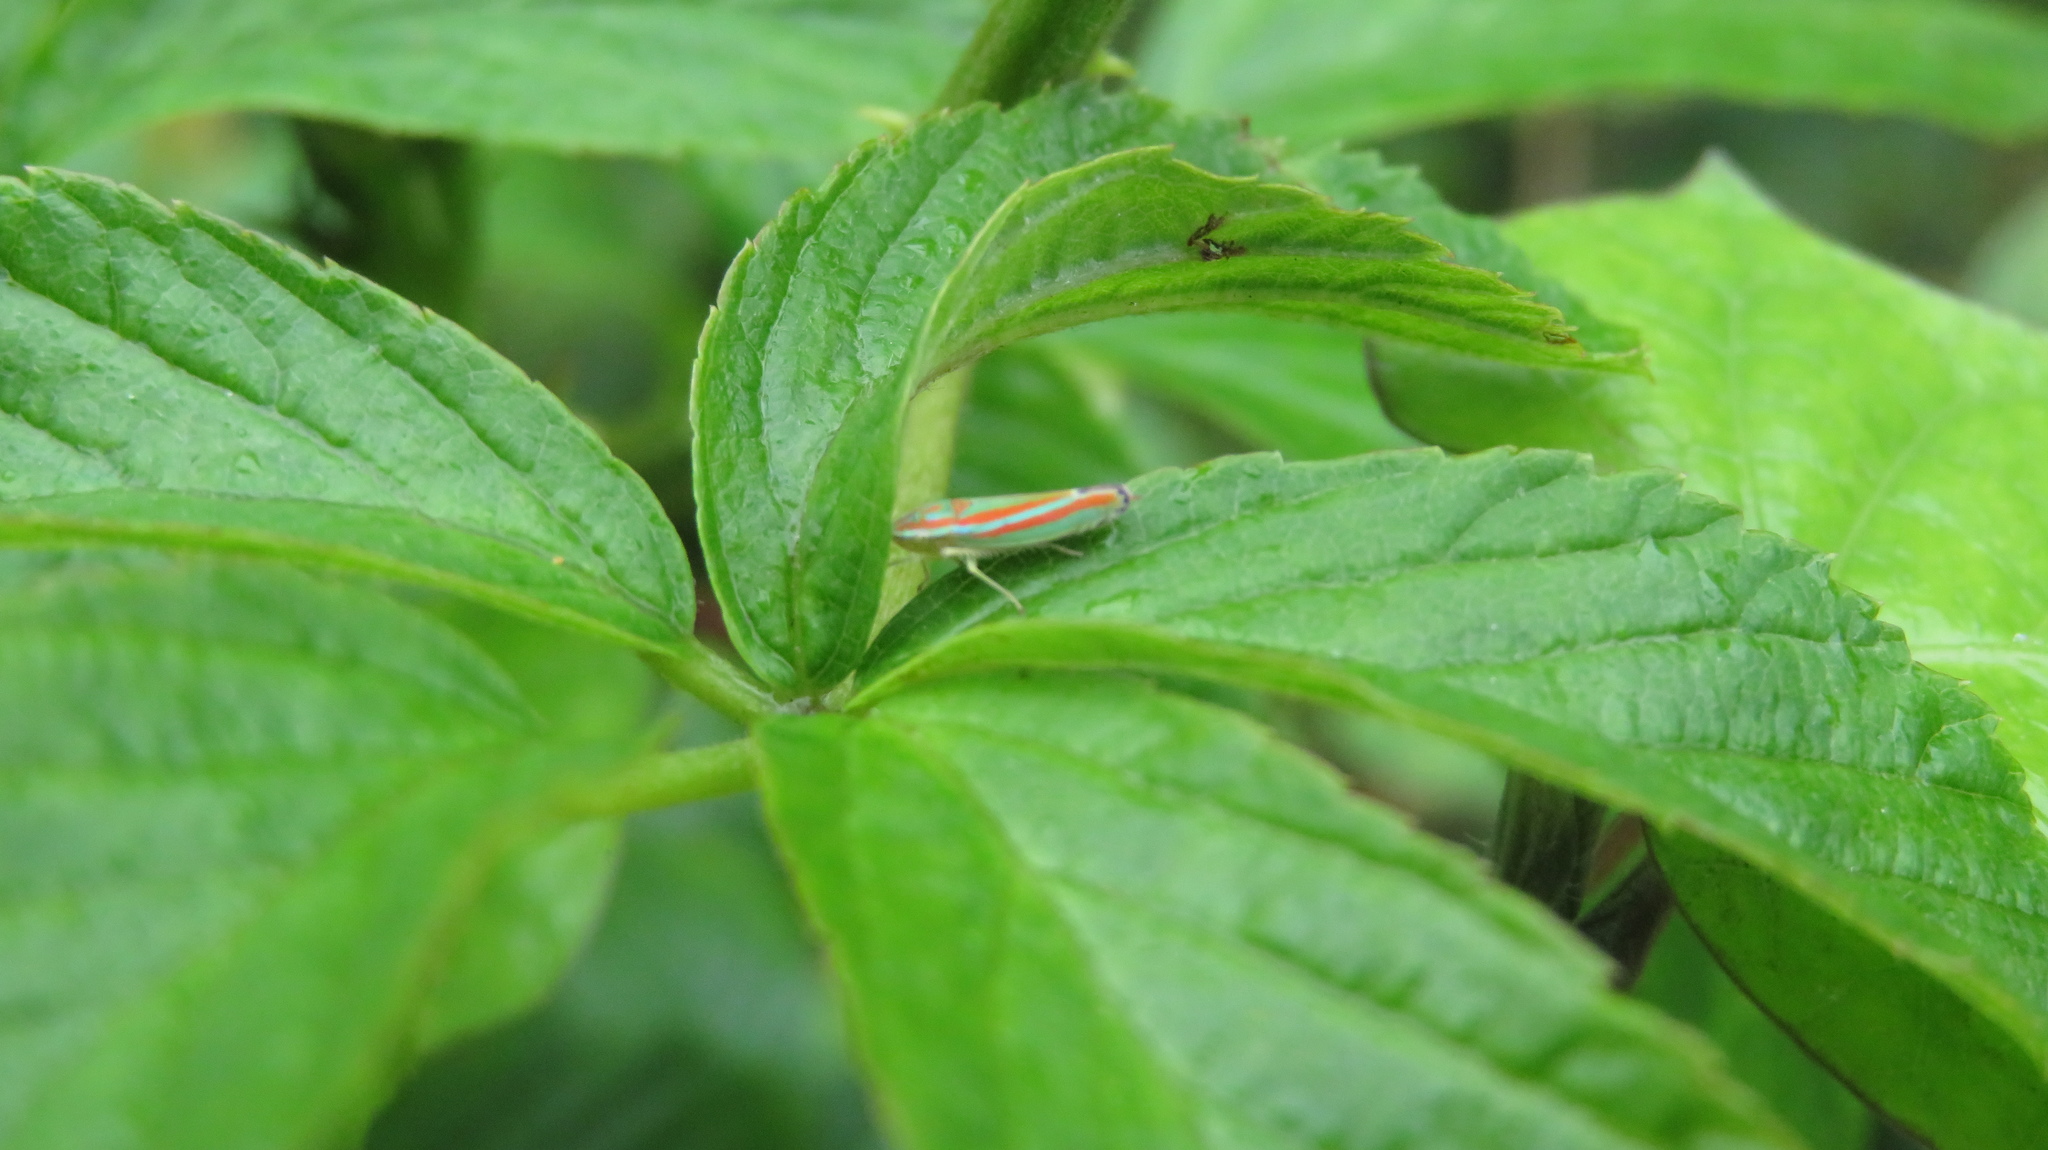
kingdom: Animalia
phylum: Arthropoda
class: Insecta
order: Hemiptera
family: Cicadellidae
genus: Graphocephala
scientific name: Graphocephala versuta
